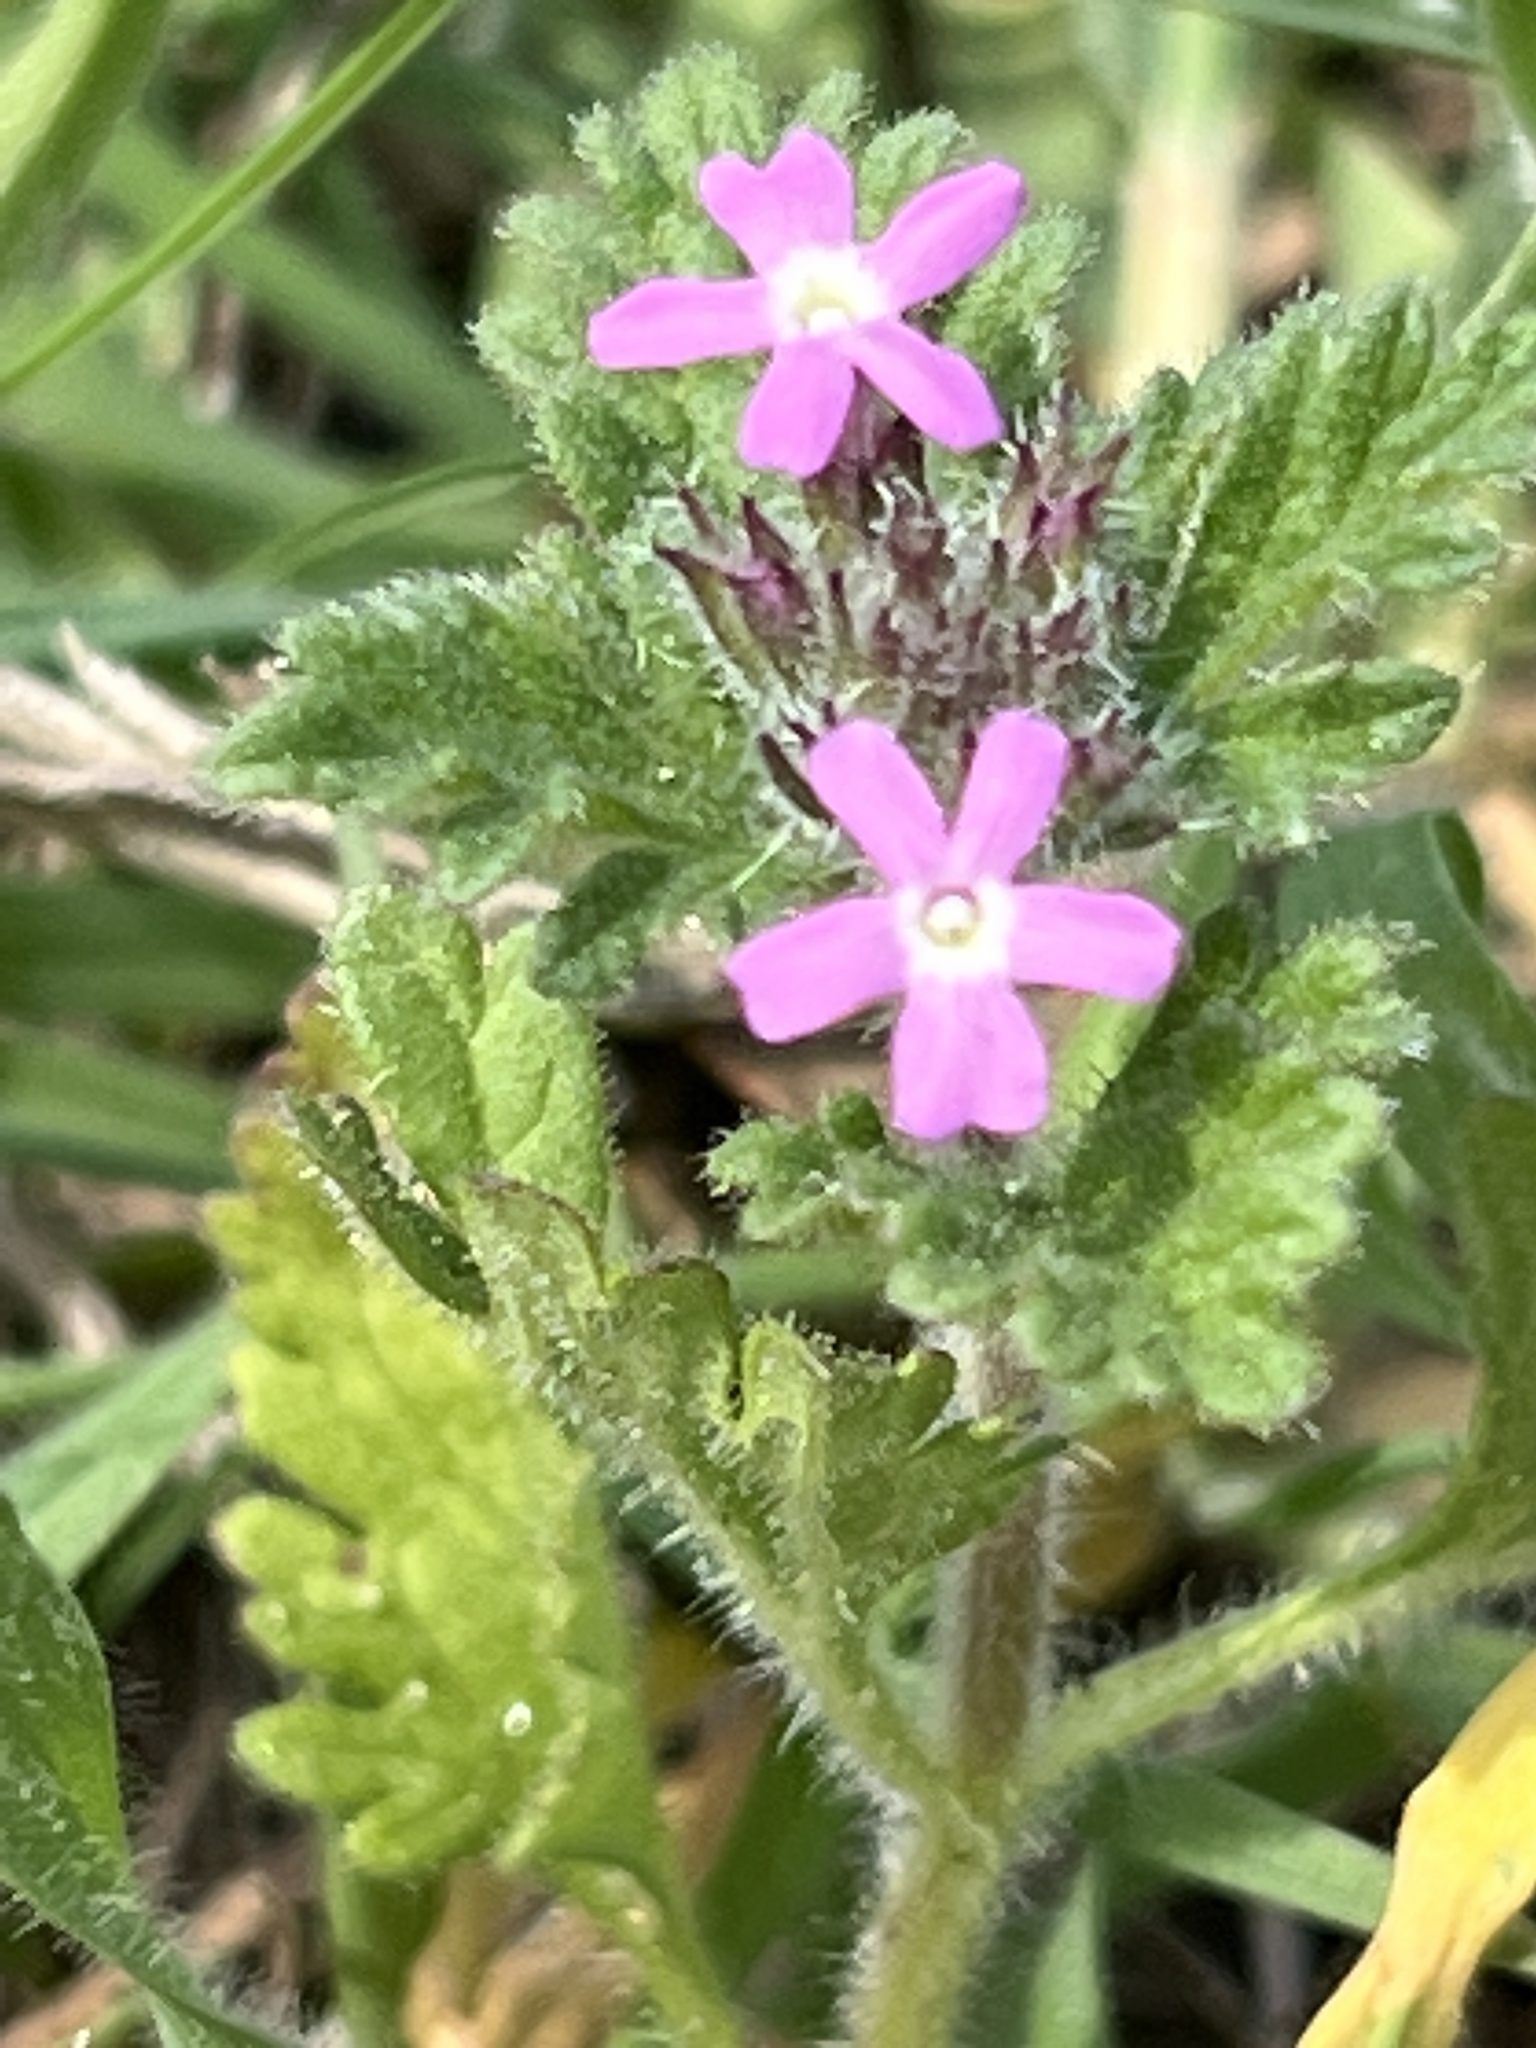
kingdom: Plantae
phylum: Tracheophyta
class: Magnoliopsida
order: Lamiales
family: Verbenaceae
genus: Verbena
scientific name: Verbena pumila
